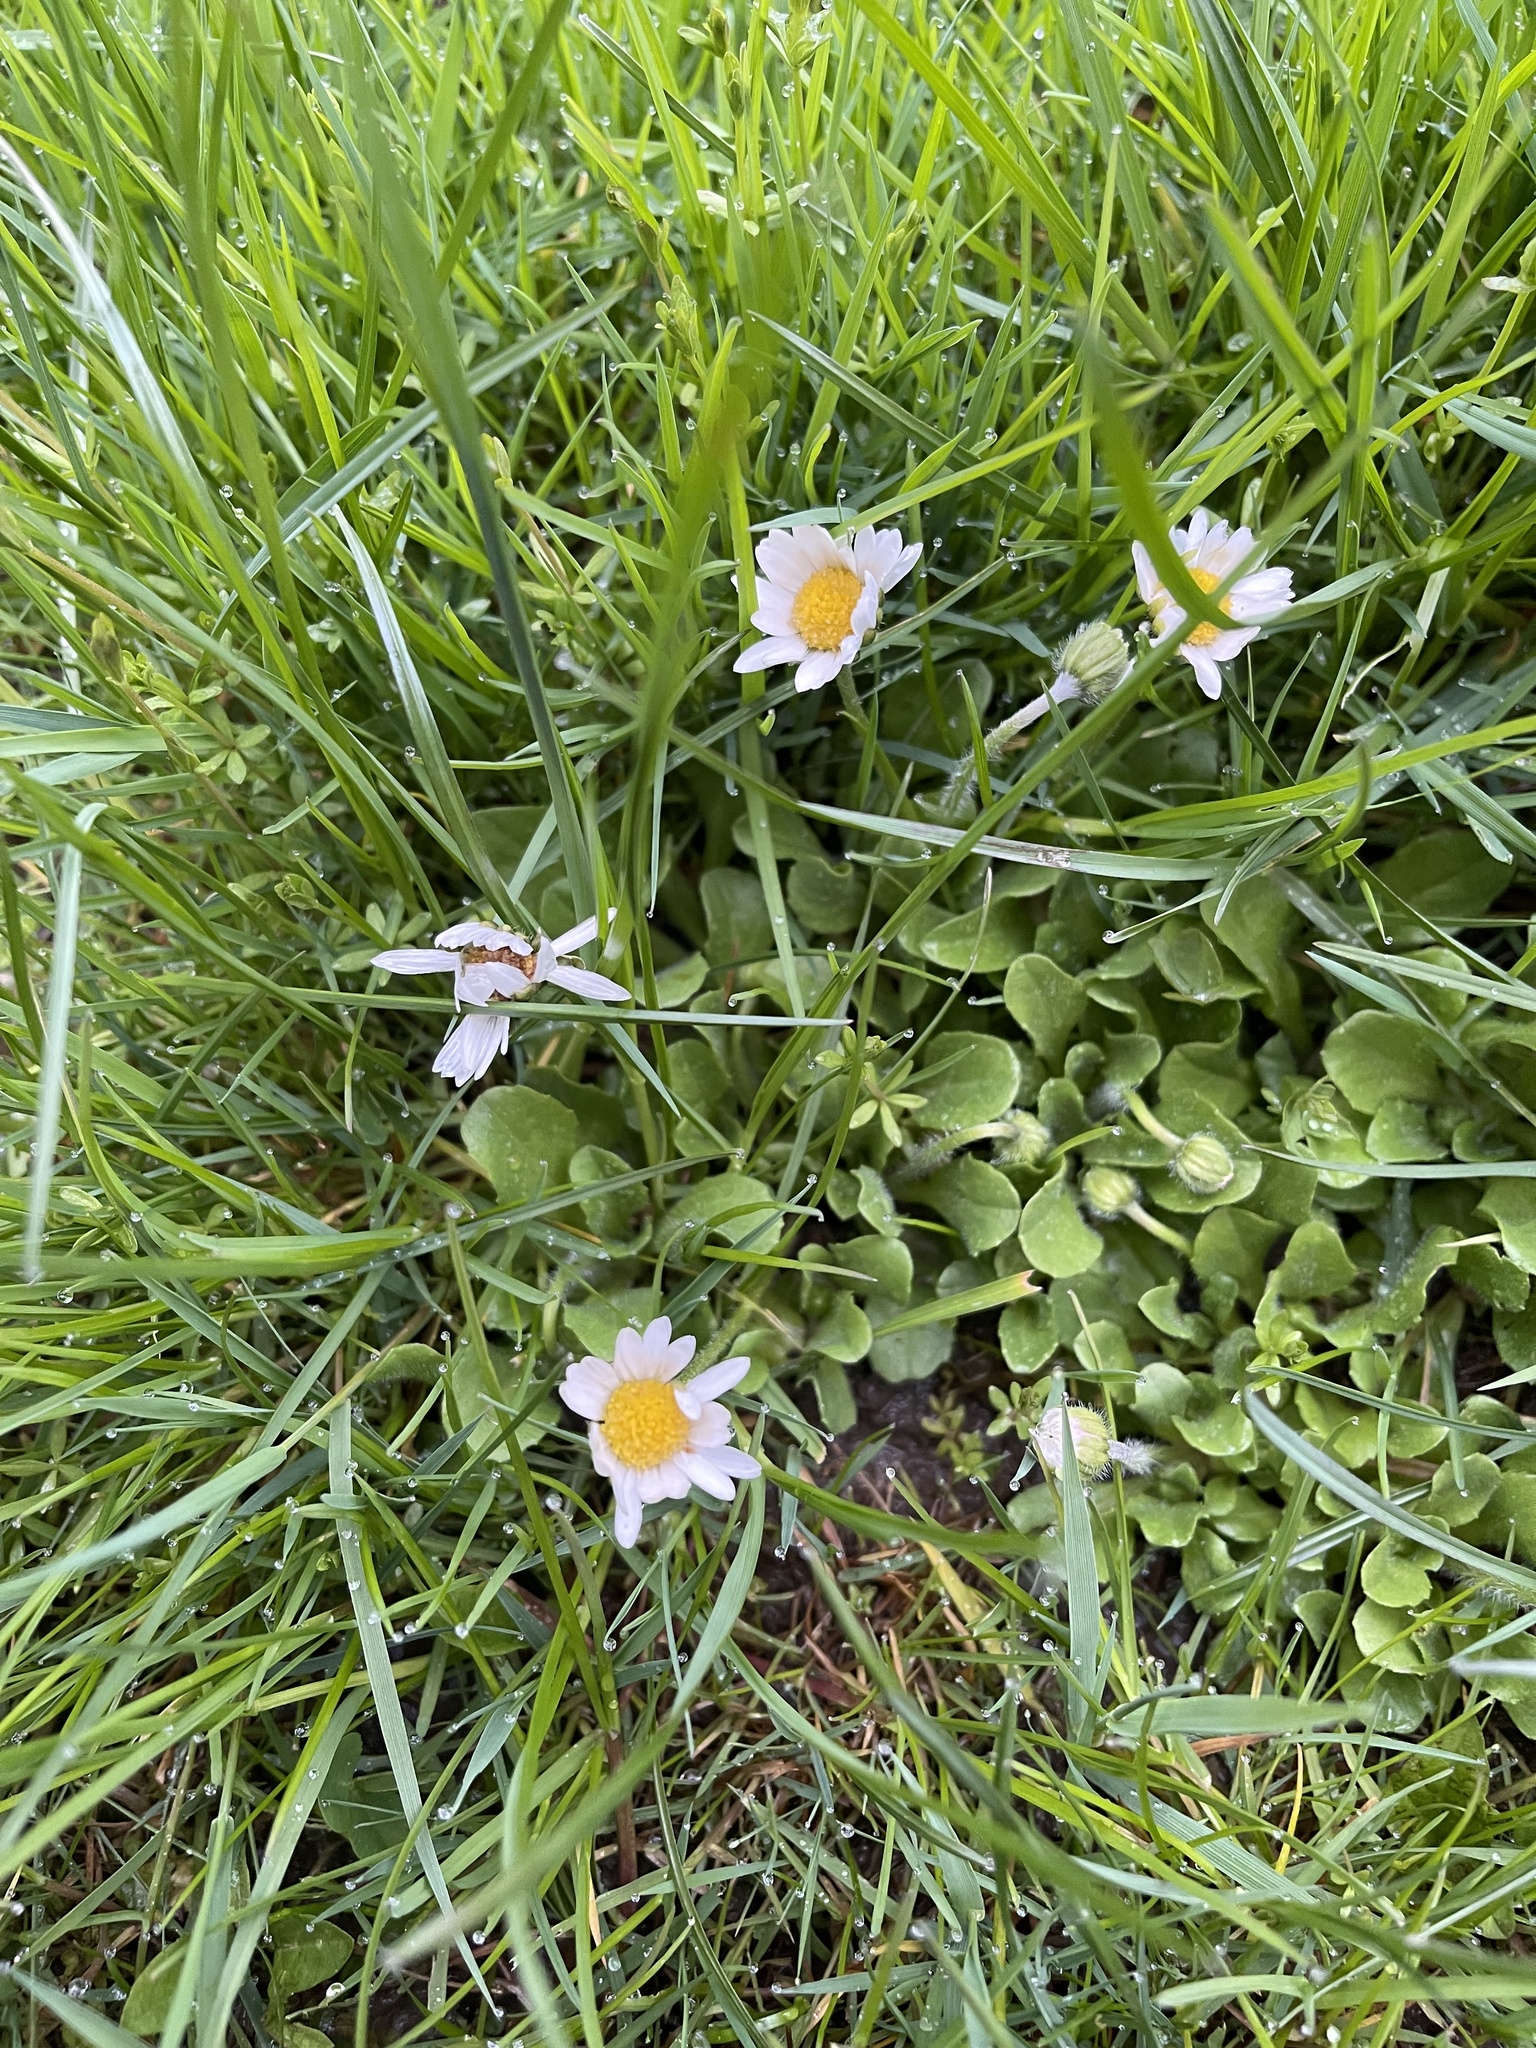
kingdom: Plantae
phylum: Tracheophyta
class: Magnoliopsida
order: Asterales
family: Asteraceae
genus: Bellis
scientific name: Bellis perennis
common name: Lawndaisy
